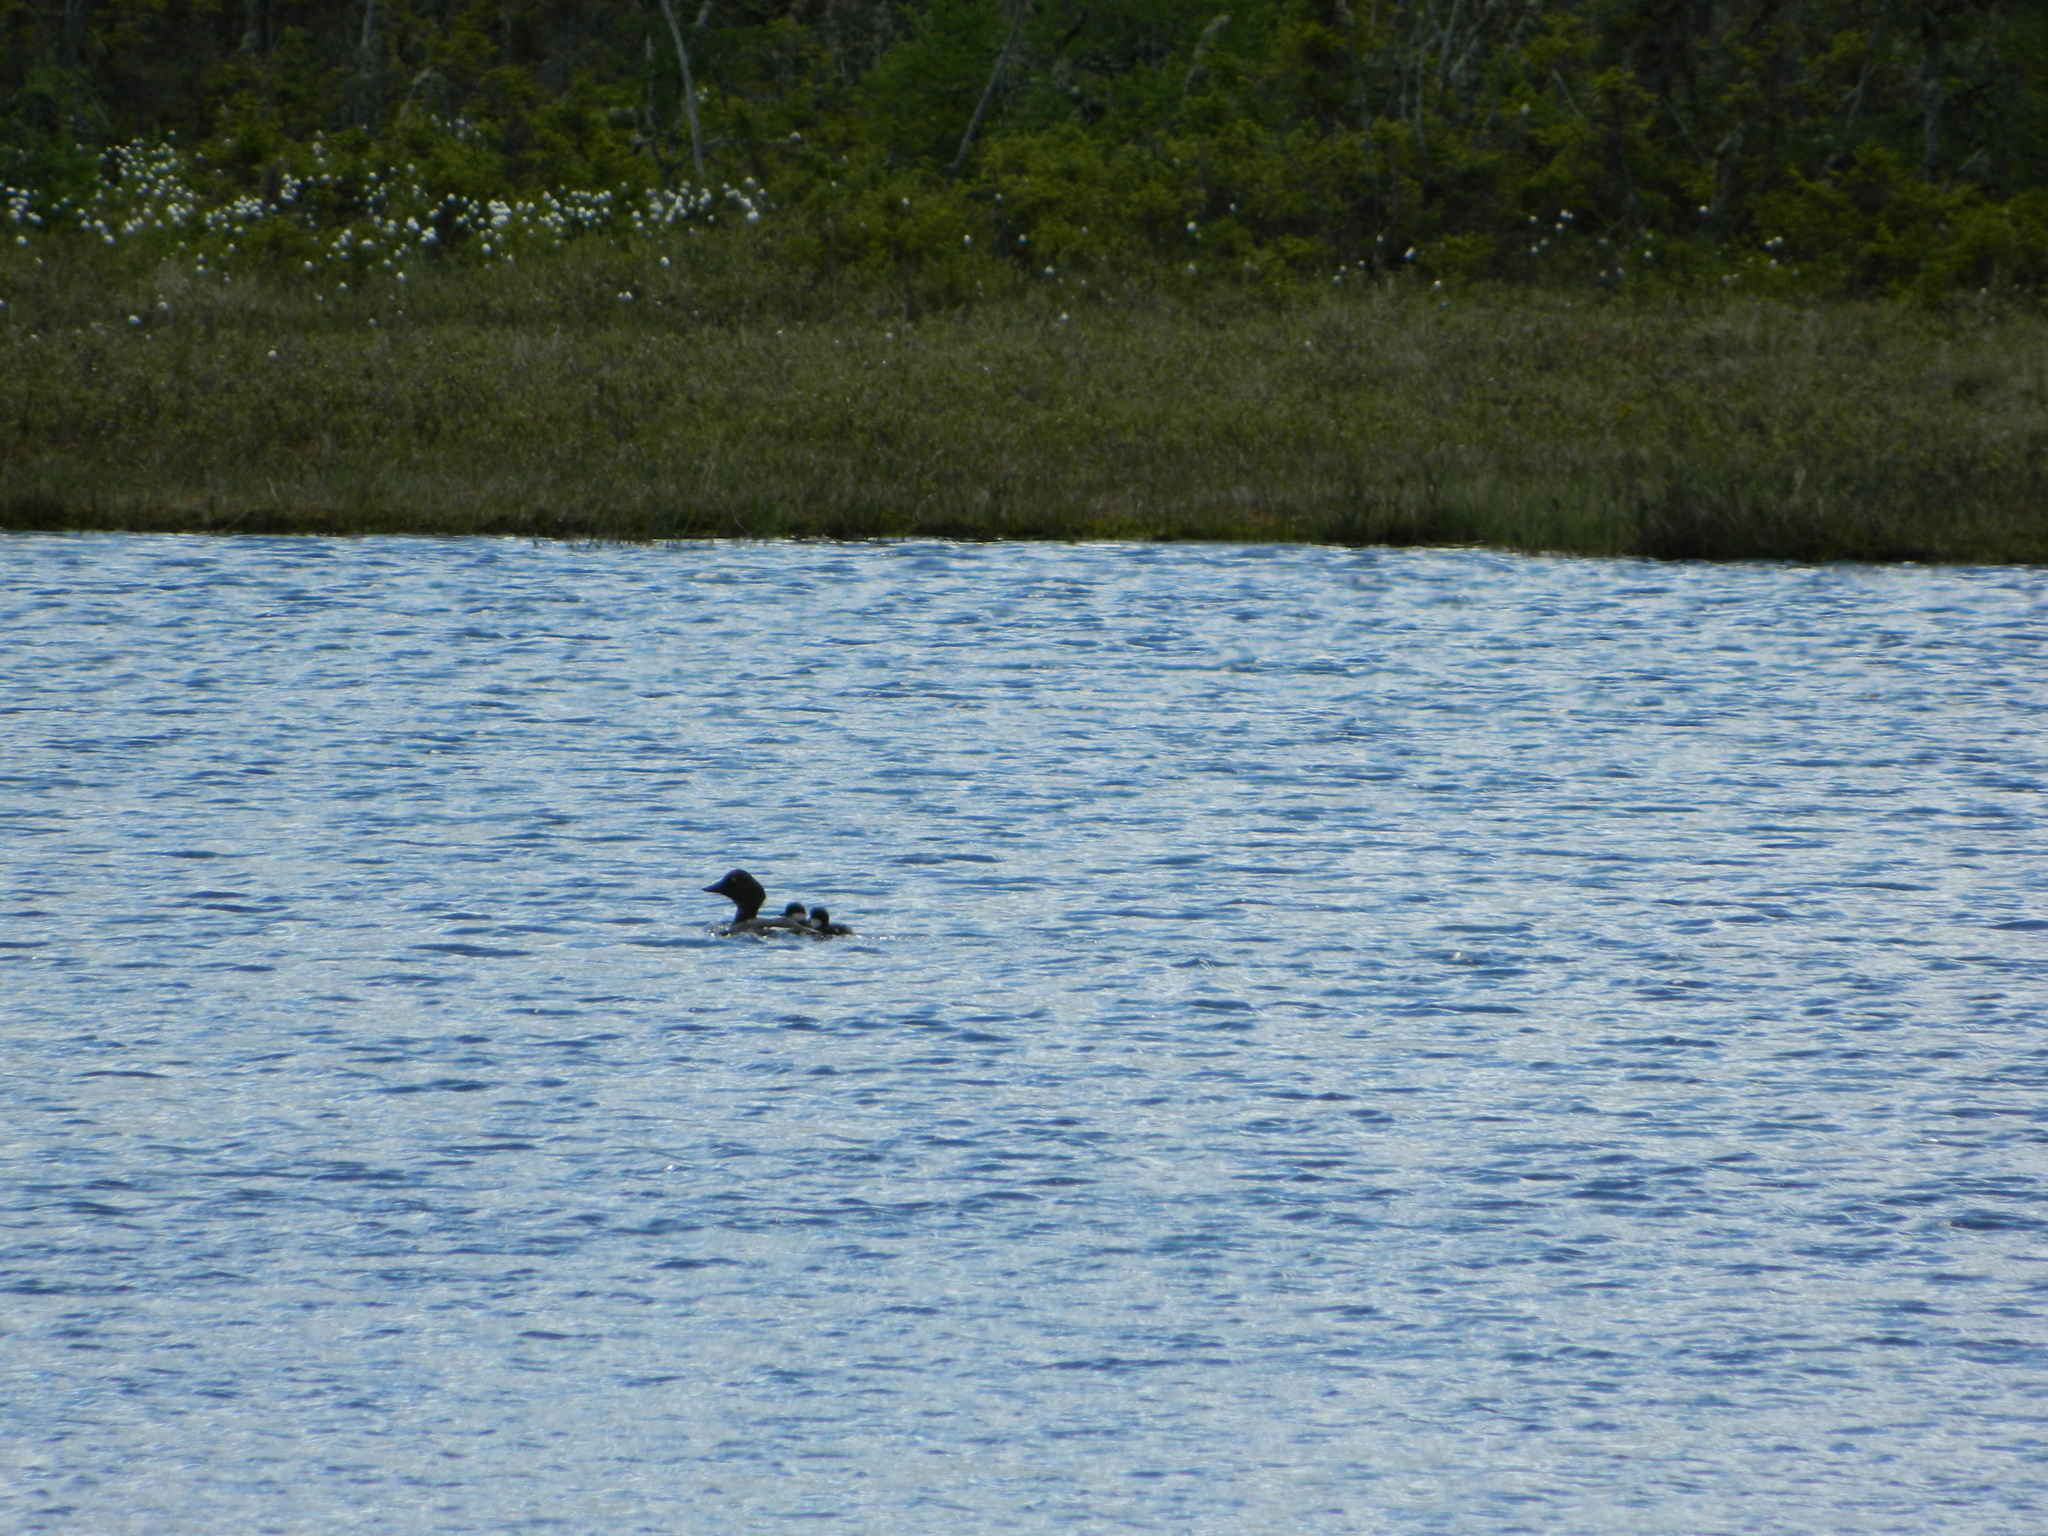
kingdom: Animalia
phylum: Chordata
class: Aves
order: Anseriformes
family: Anatidae
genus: Bucephala
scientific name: Bucephala clangula
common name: Common goldeneye
